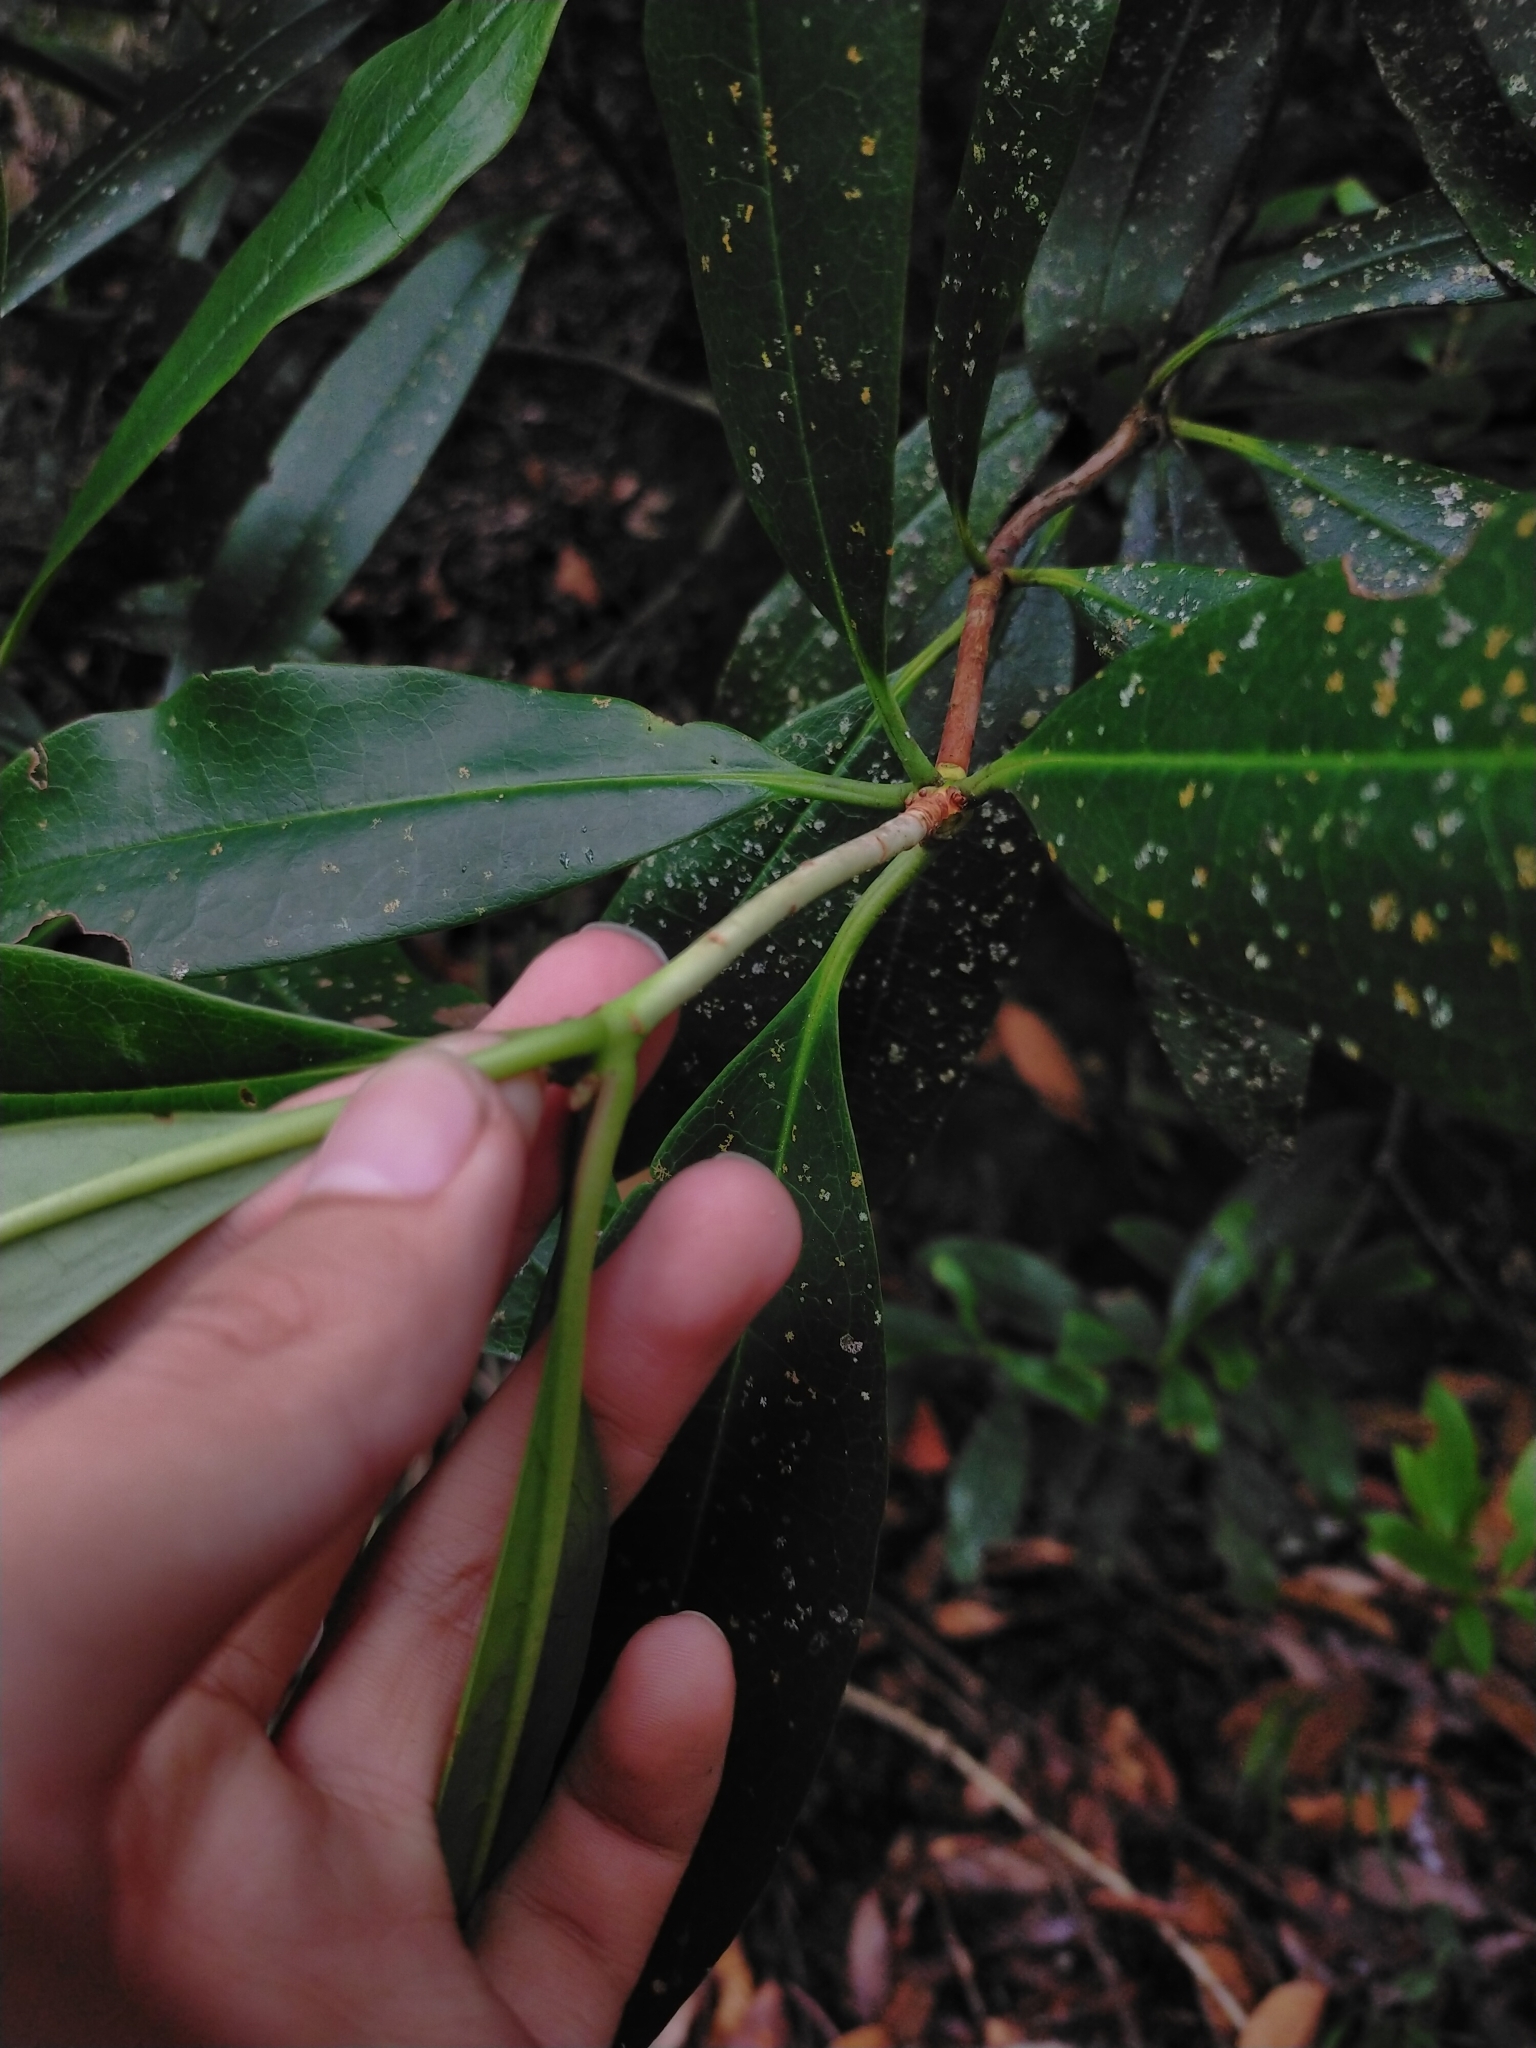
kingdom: Plantae
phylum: Tracheophyta
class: Magnoliopsida
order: Ericales
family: Ericaceae
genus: Rhododendron
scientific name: Rhododendron latoucheae
